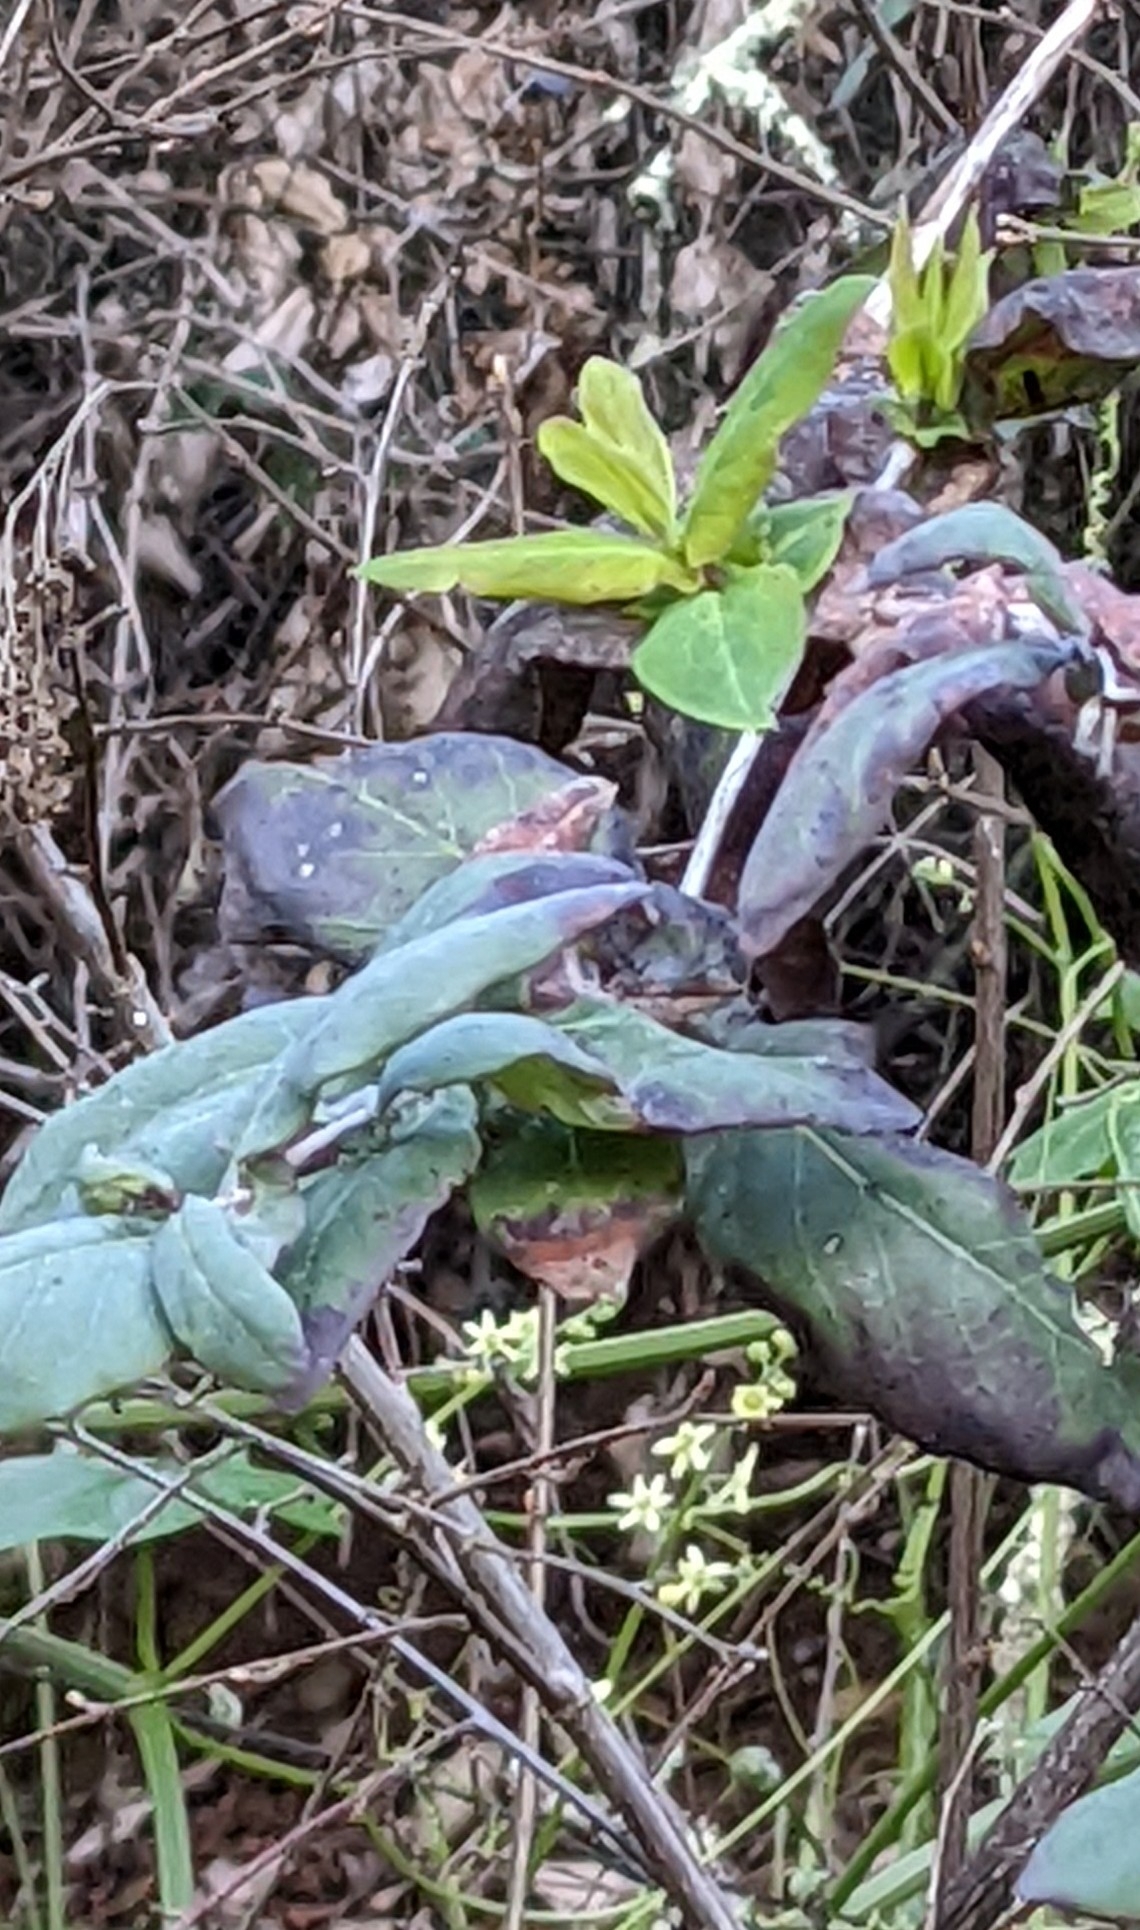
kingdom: Plantae
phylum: Tracheophyta
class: Magnoliopsida
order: Dipsacales
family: Caprifoliaceae
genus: Lonicera
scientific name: Lonicera hispidula
